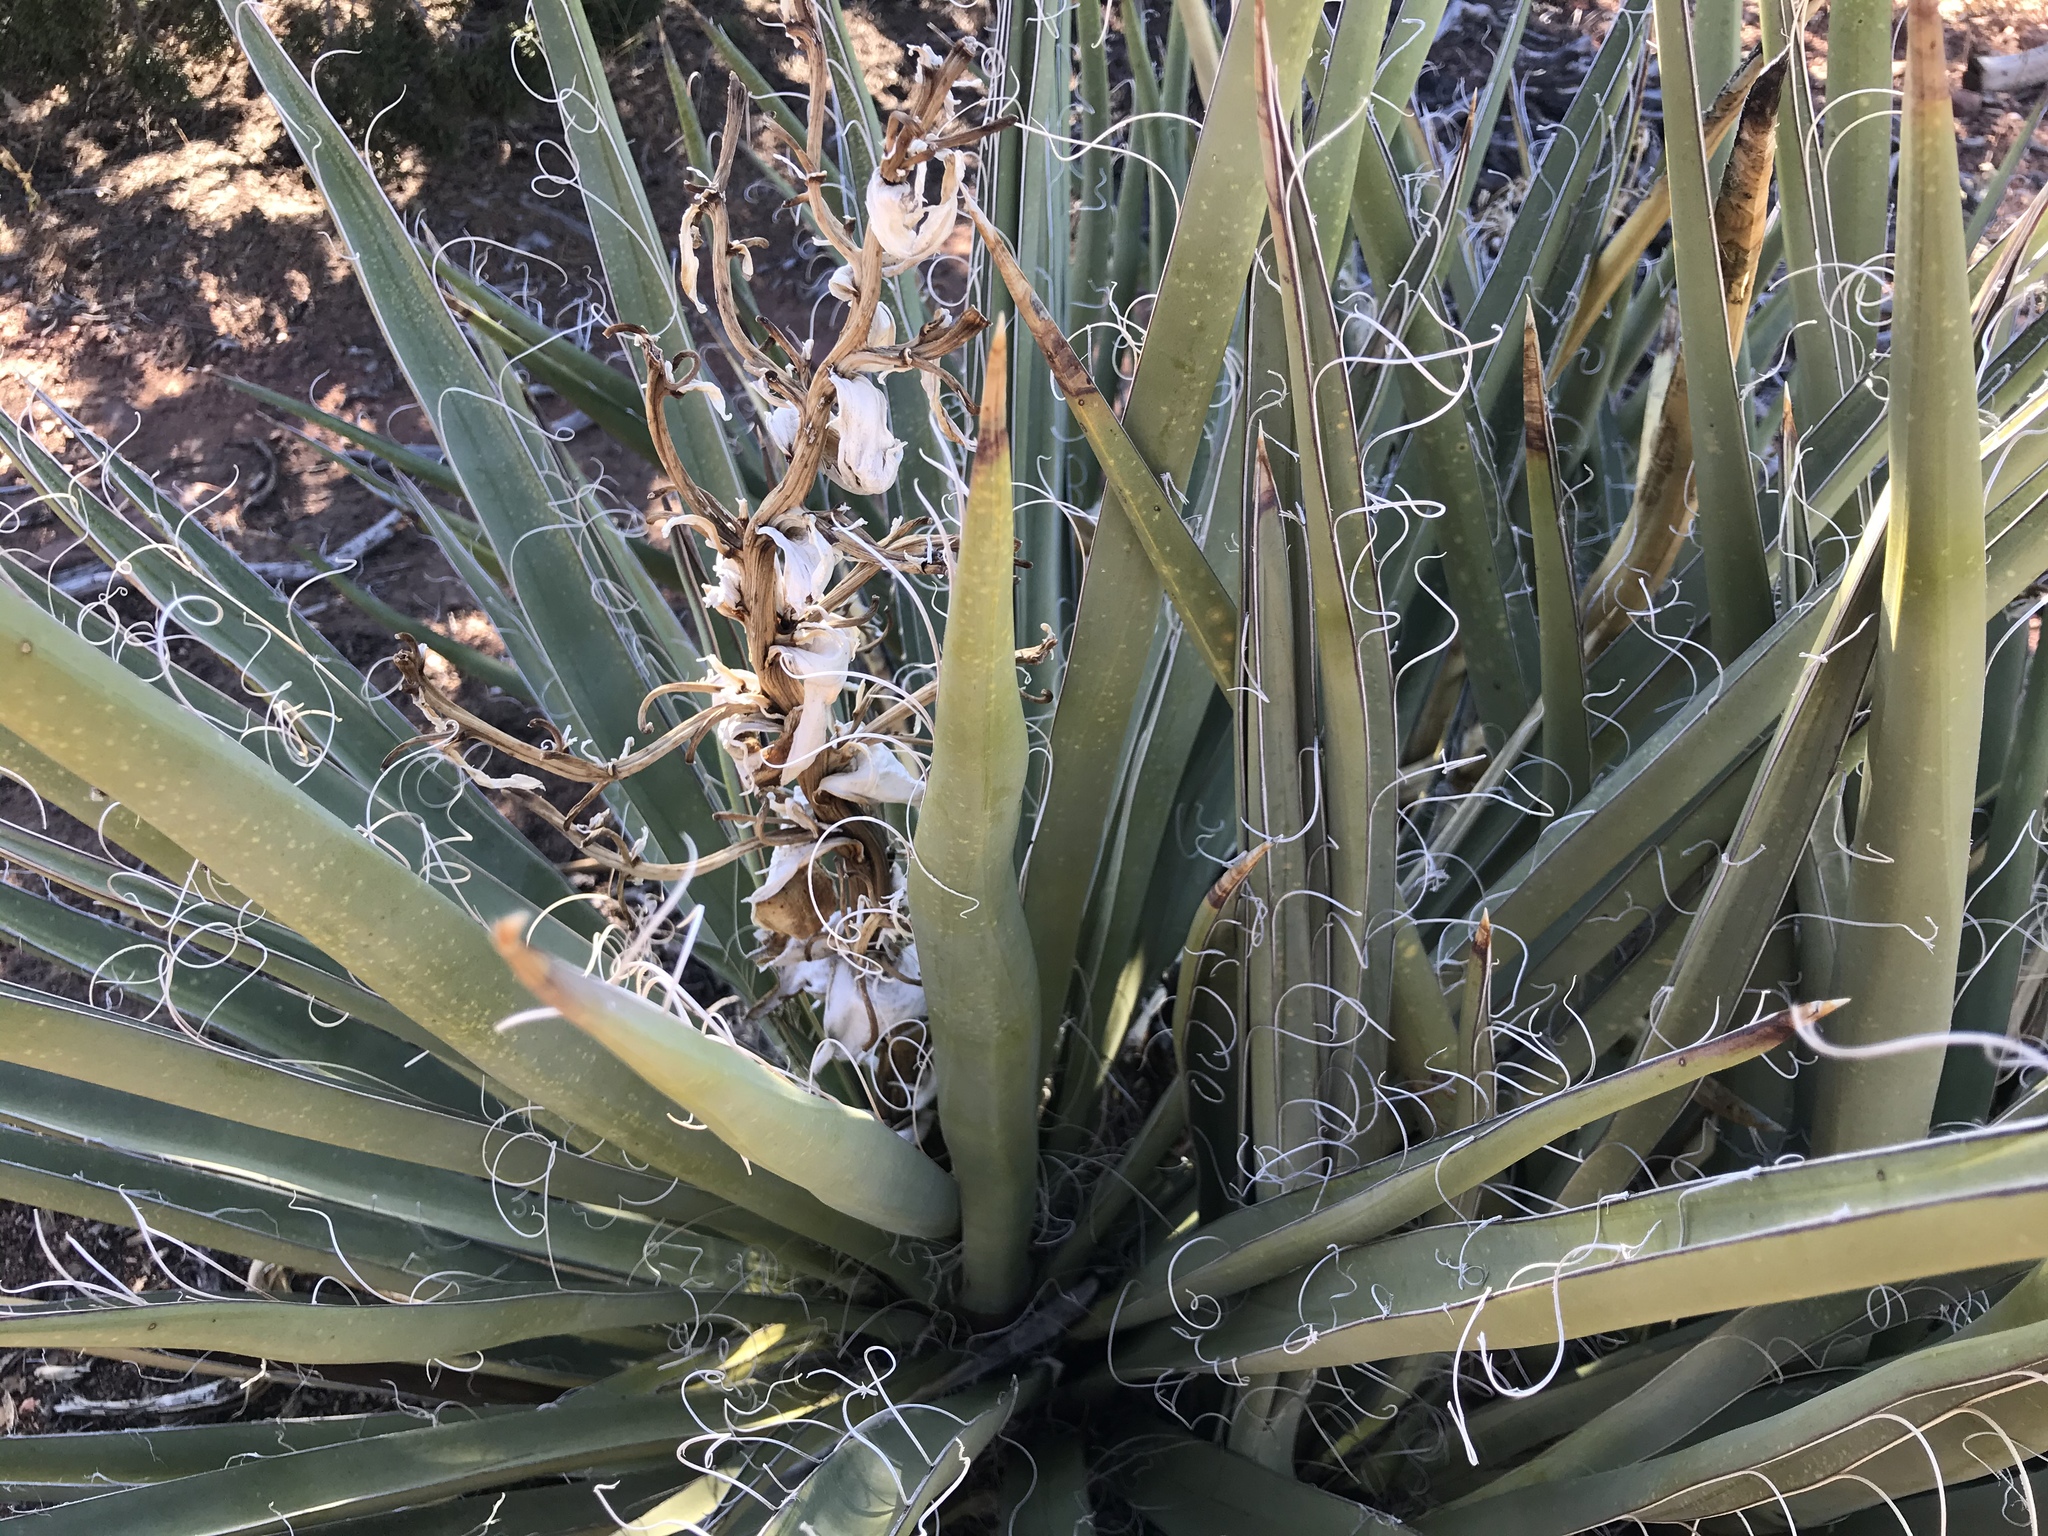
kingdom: Plantae
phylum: Tracheophyta
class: Liliopsida
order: Asparagales
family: Asparagaceae
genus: Yucca
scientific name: Yucca baccata
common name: Banana yucca
